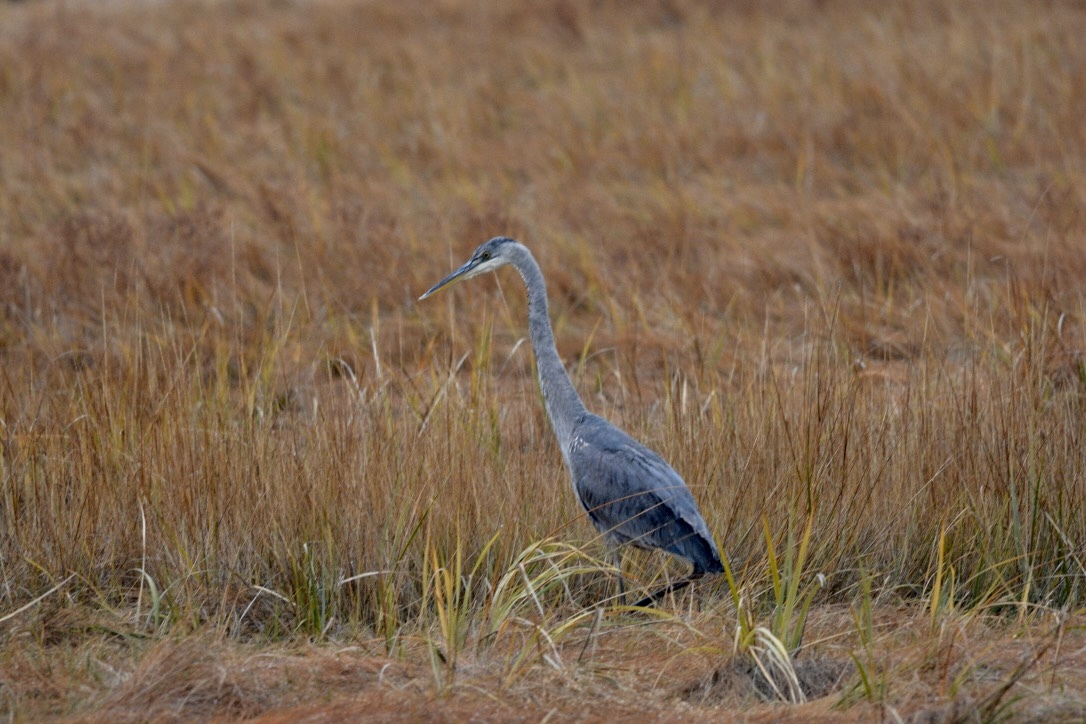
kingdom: Animalia
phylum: Chordata
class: Aves
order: Pelecaniformes
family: Ardeidae
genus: Ardea
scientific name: Ardea herodias
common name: Great blue heron
